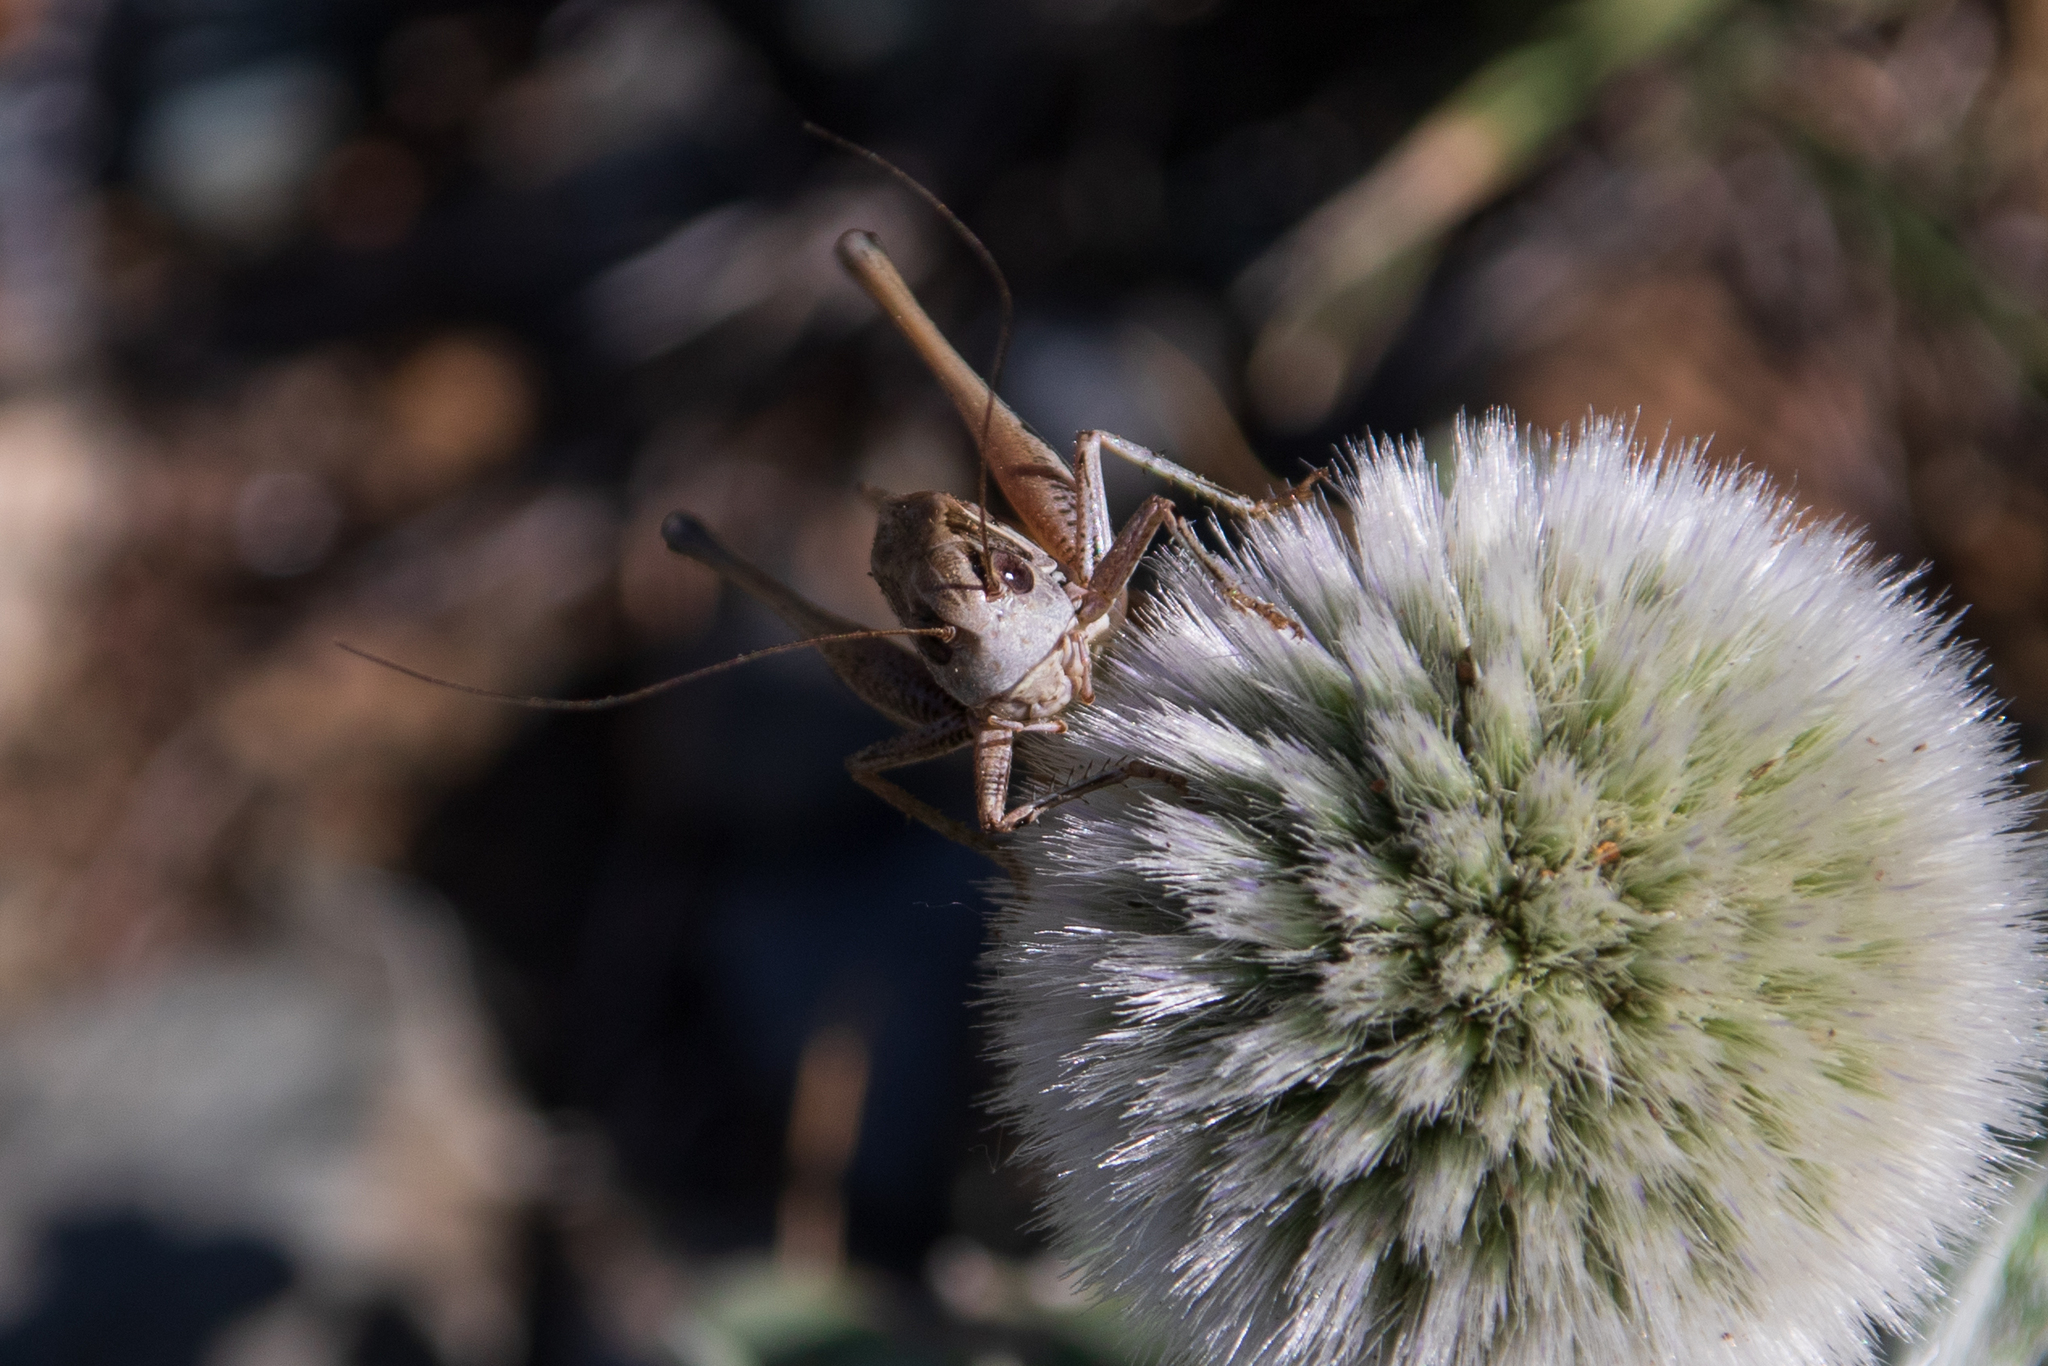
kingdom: Animalia
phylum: Arthropoda
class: Insecta
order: Orthoptera
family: Tettigoniidae
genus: Montana
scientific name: Montana montana
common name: Steppe bush-cricket
